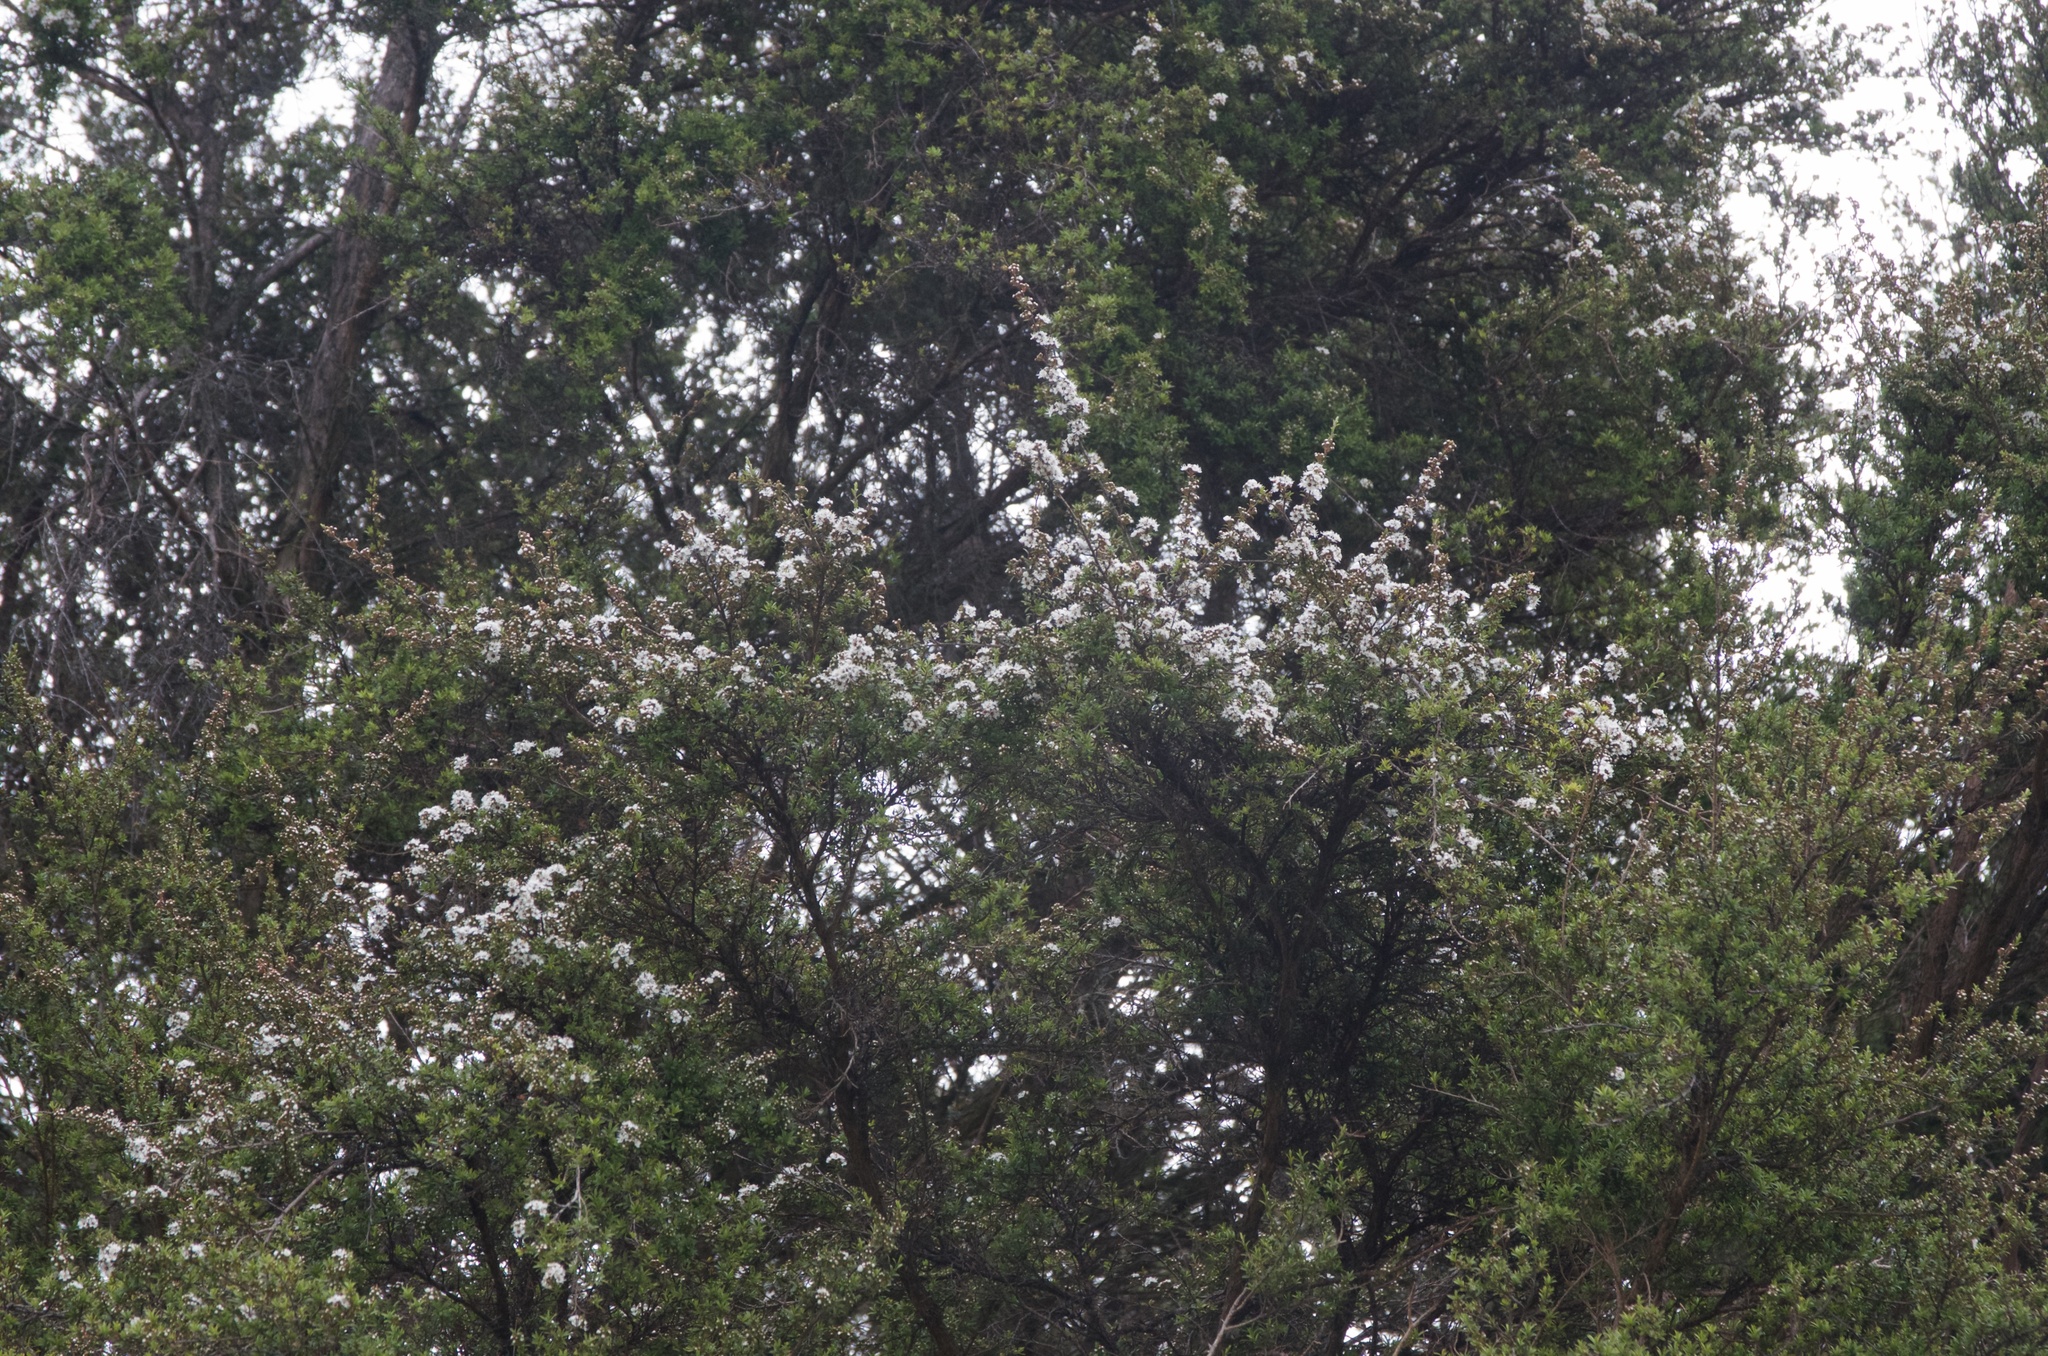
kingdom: Plantae
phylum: Tracheophyta
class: Magnoliopsida
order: Myrtales
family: Myrtaceae
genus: Kunzea
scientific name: Kunzea robusta
